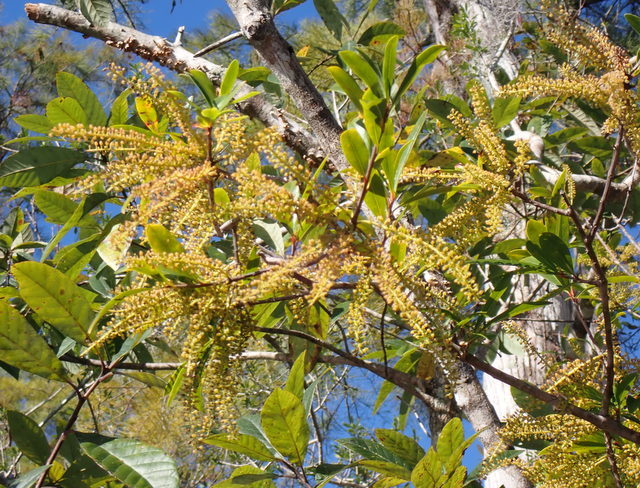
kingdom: Plantae
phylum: Tracheophyta
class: Magnoliopsida
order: Ericales
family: Cyrillaceae
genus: Cyrilla
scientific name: Cyrilla racemiflora
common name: Black titi
